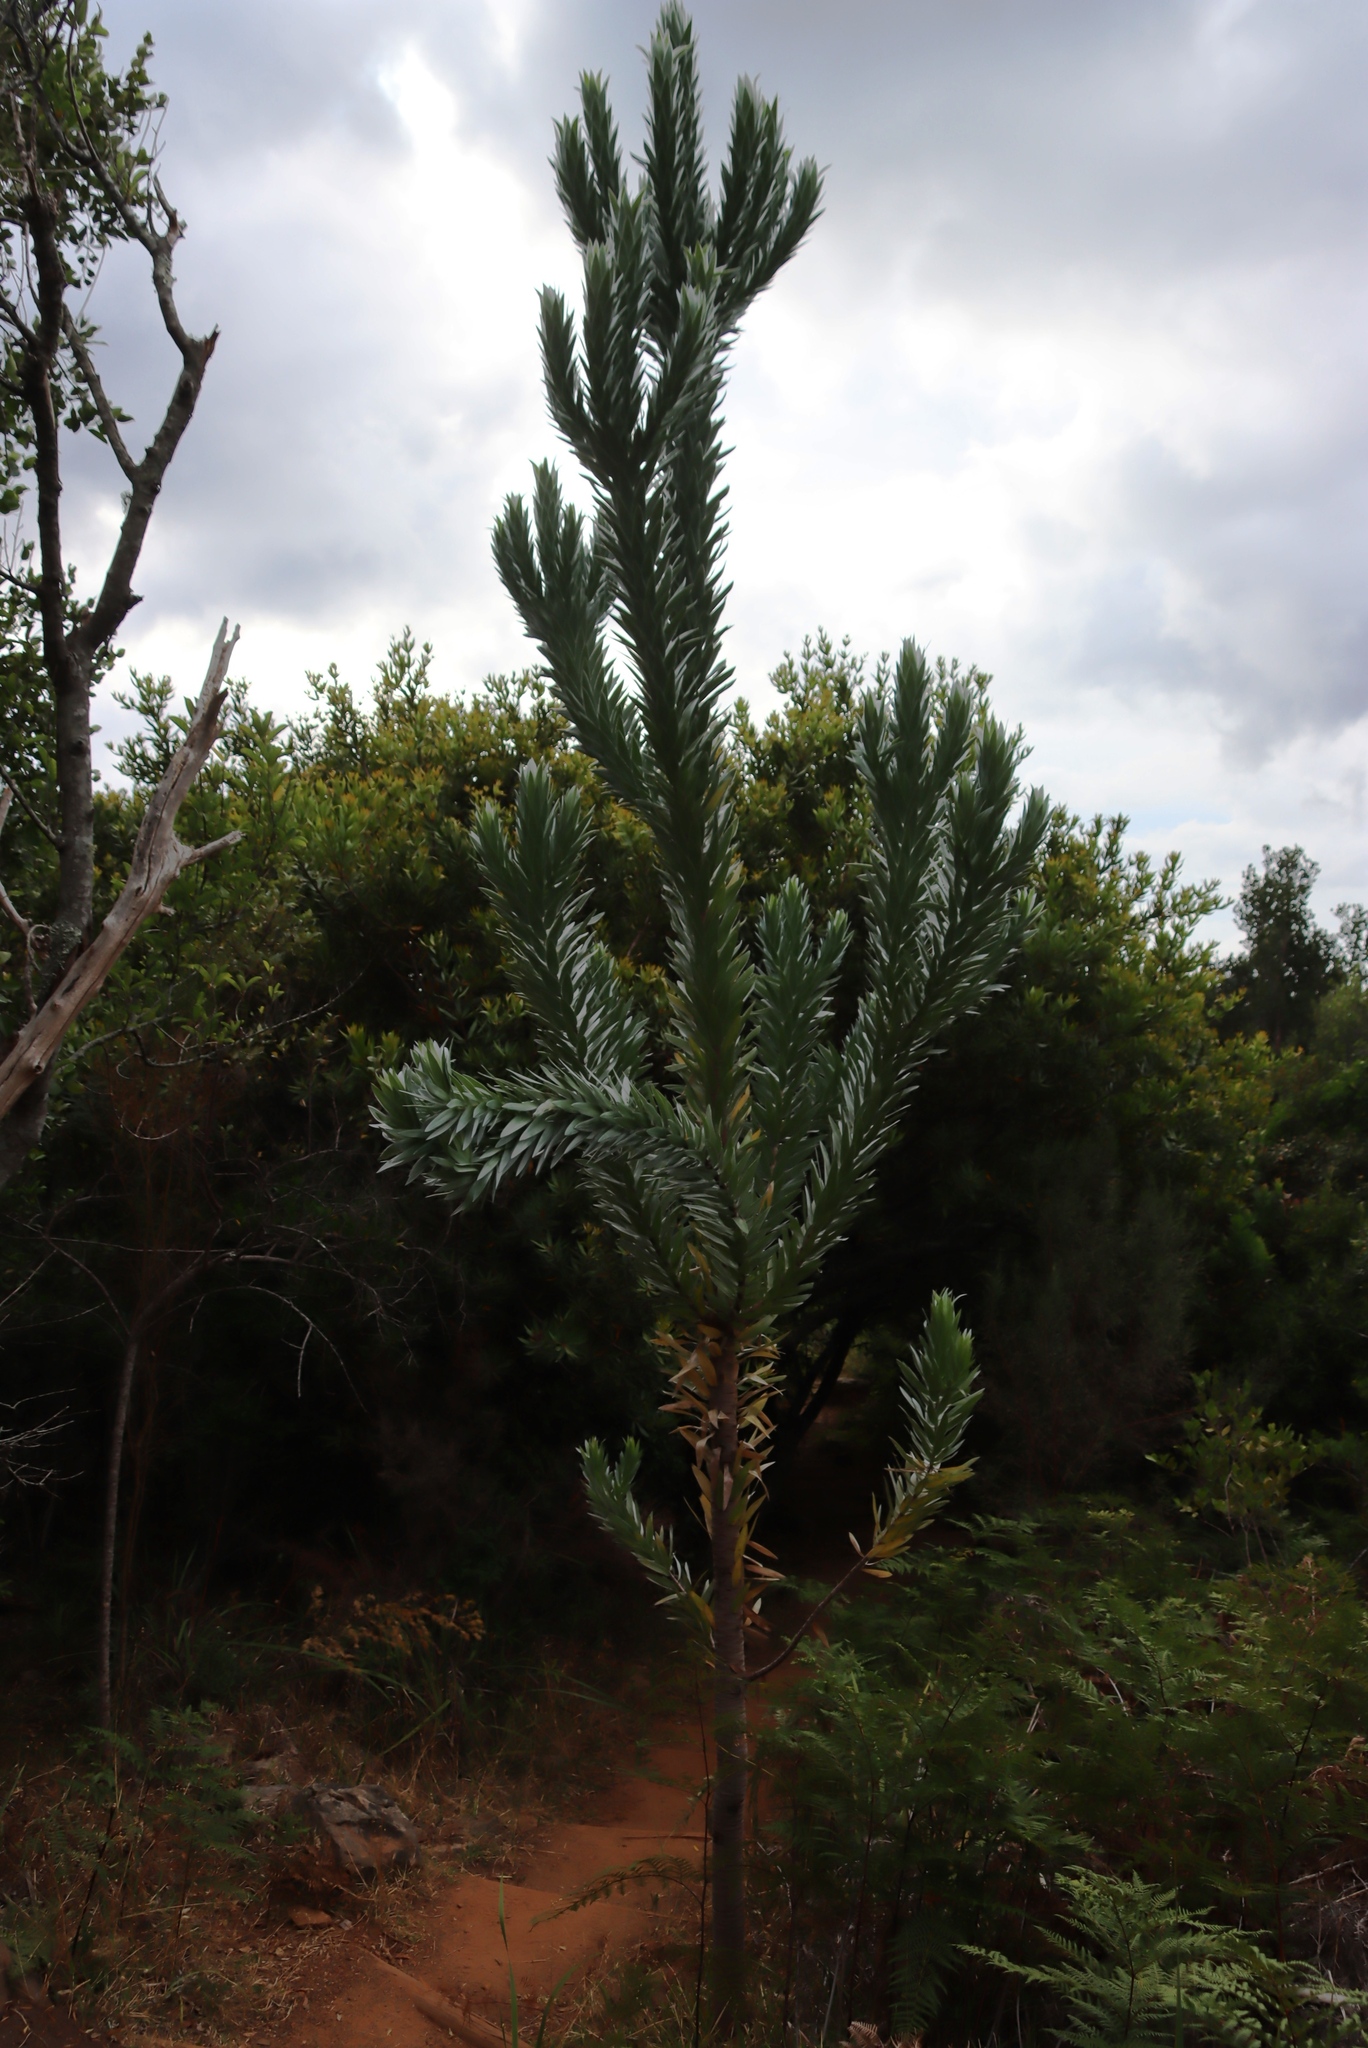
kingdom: Plantae
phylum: Tracheophyta
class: Magnoliopsida
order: Proteales
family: Proteaceae
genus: Leucadendron
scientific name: Leucadendron argenteum
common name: Cape silver tree
